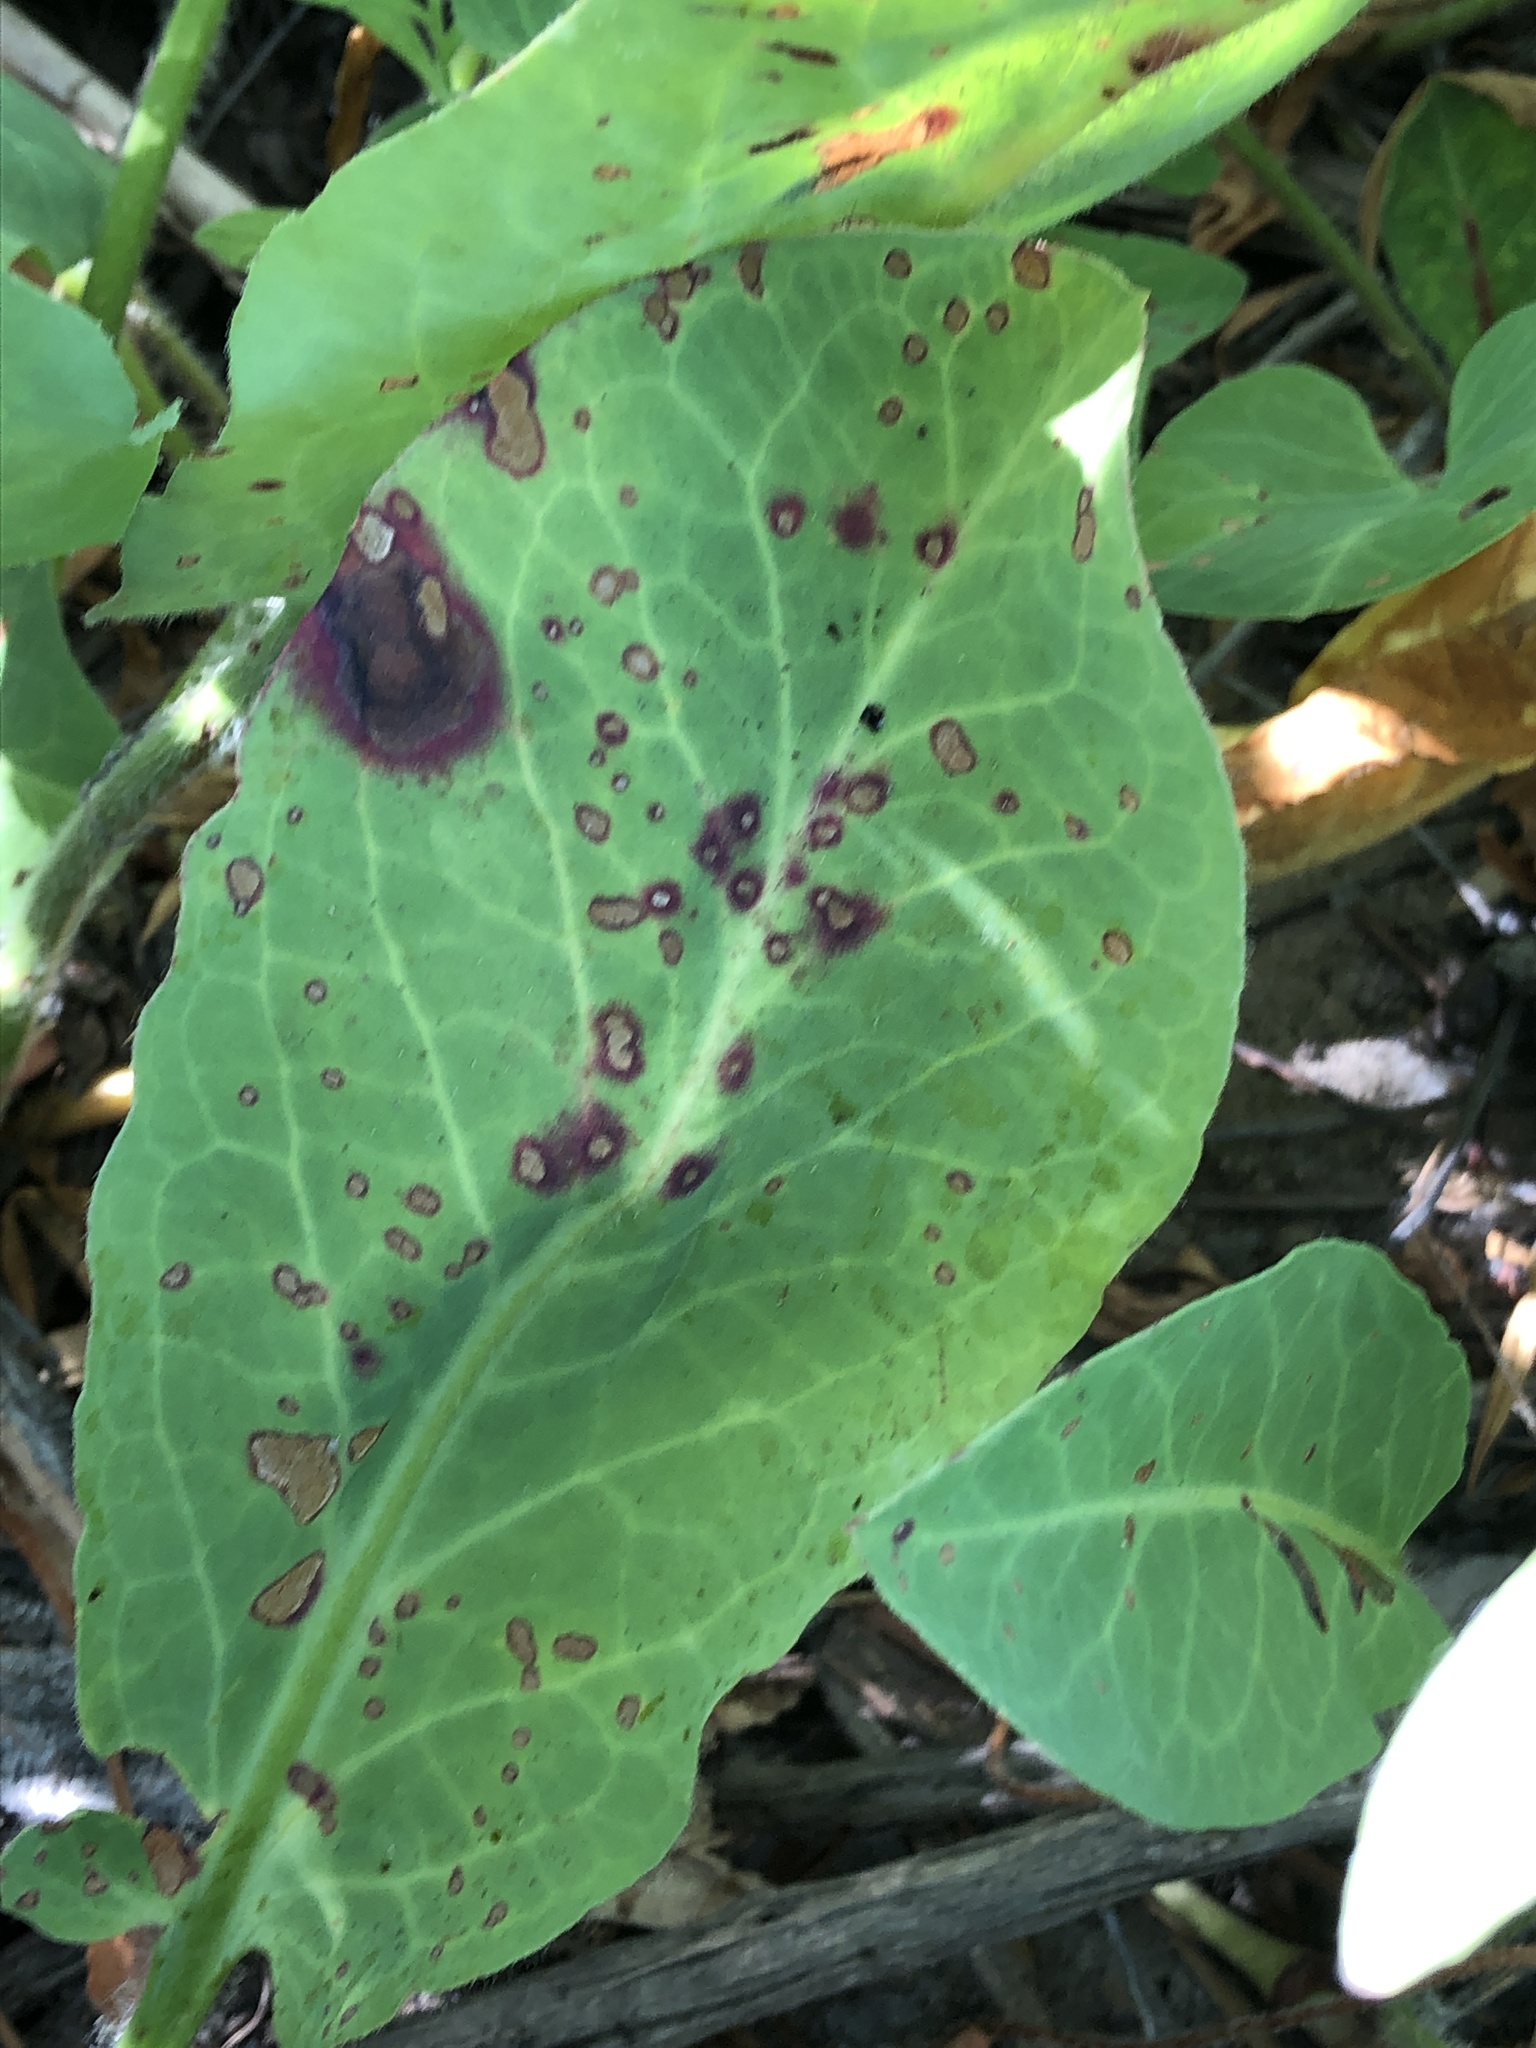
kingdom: Plantae
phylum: Tracheophyta
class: Magnoliopsida
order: Piperales
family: Saururaceae
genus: Anemopsis
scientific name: Anemopsis californica
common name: Apache-beads
